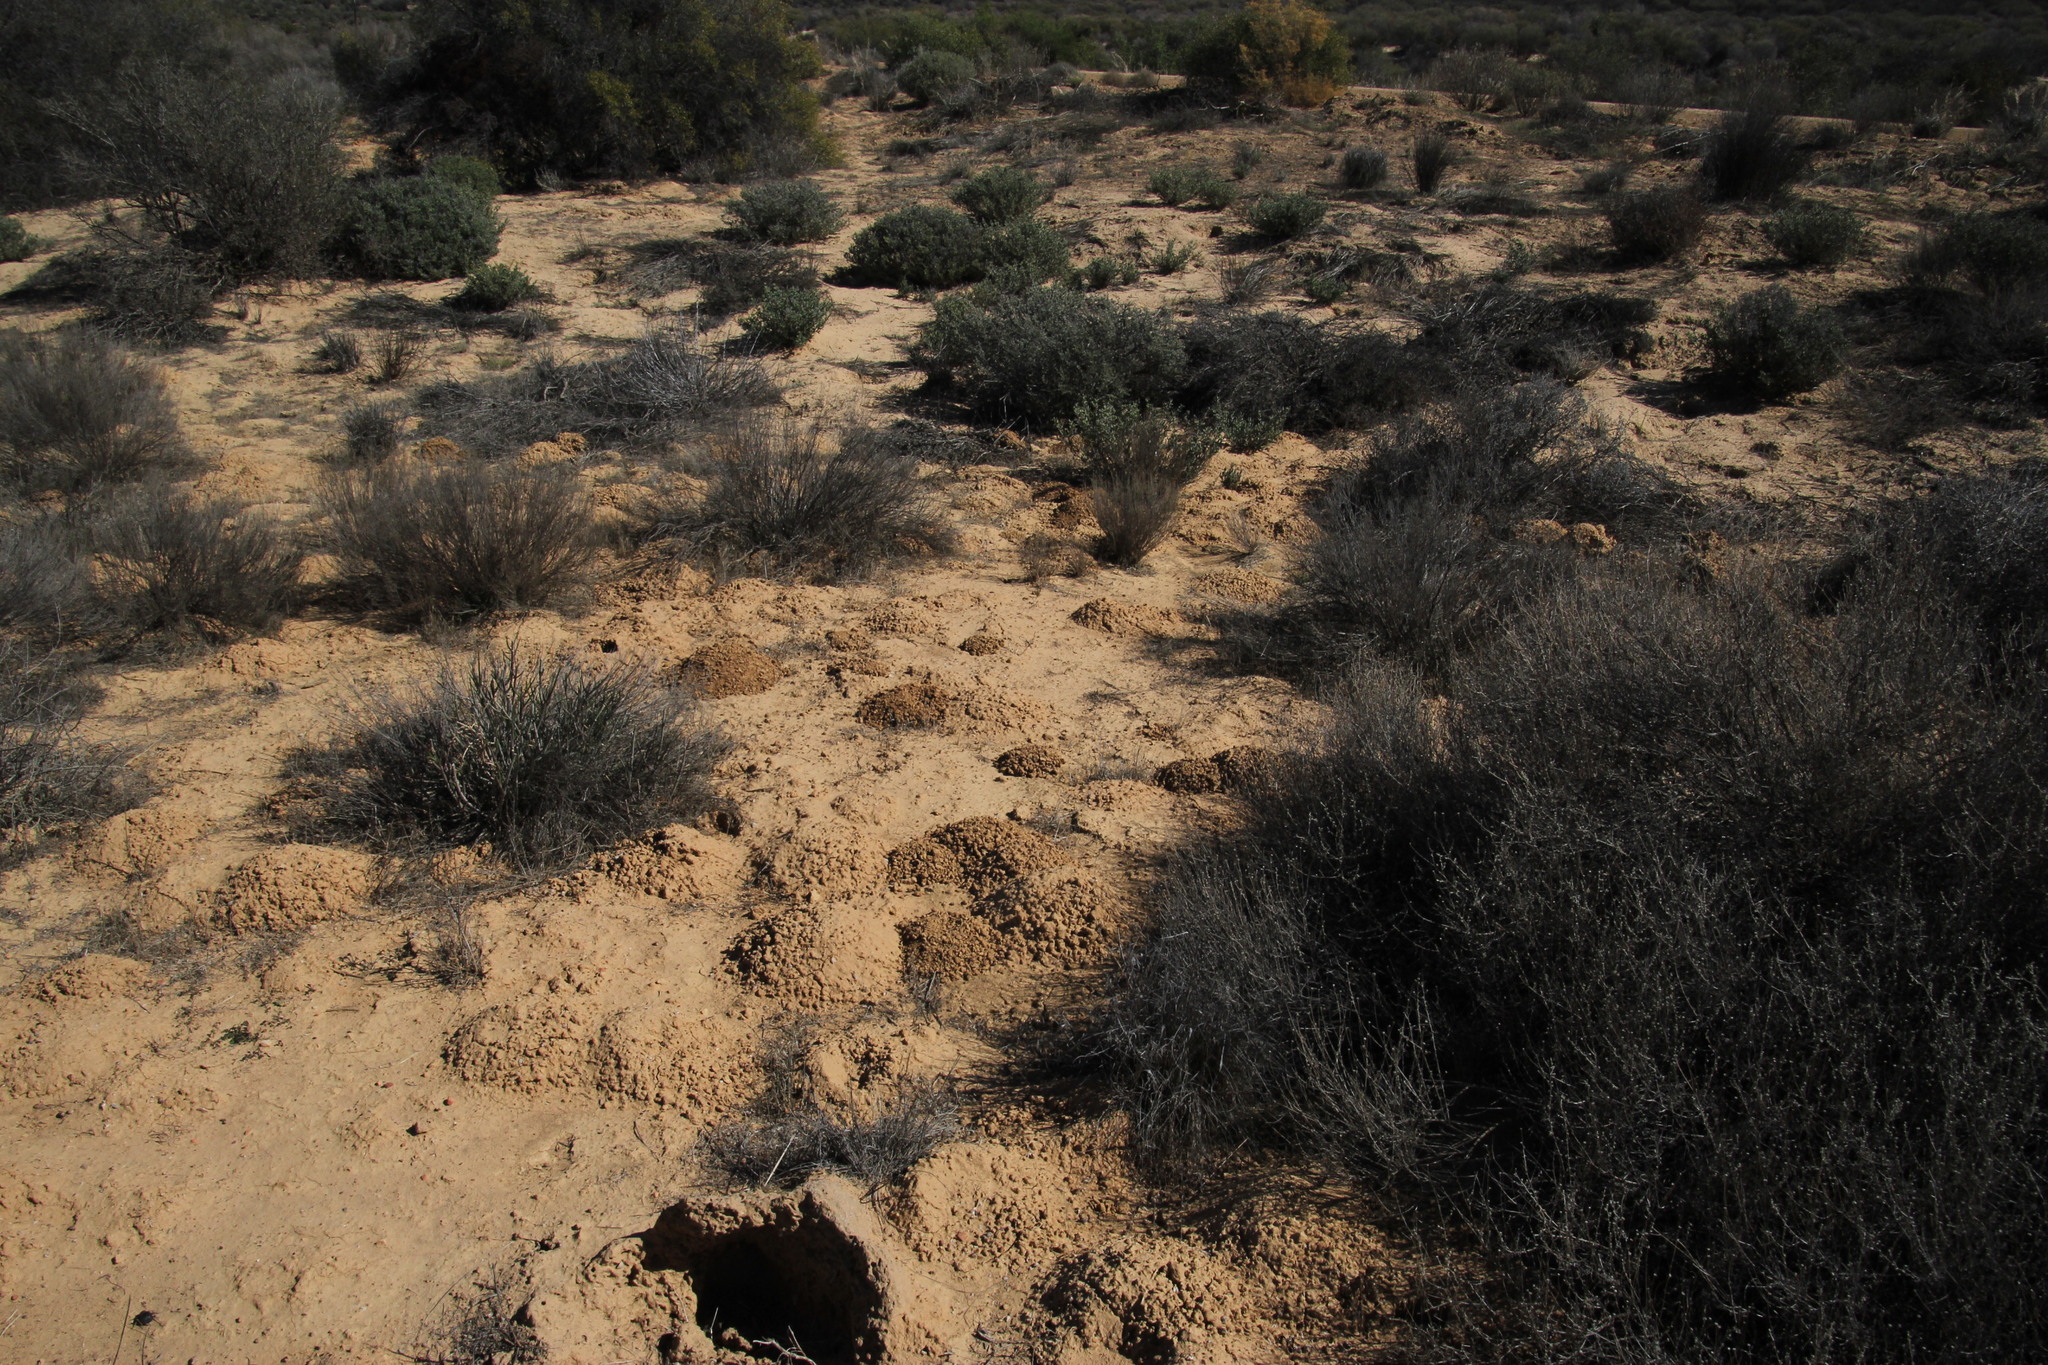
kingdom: Animalia
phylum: Chordata
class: Mammalia
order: Rodentia
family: Bathyergidae
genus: Cryptomys
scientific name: Cryptomys hottentotus
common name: Southern african mole-rat
